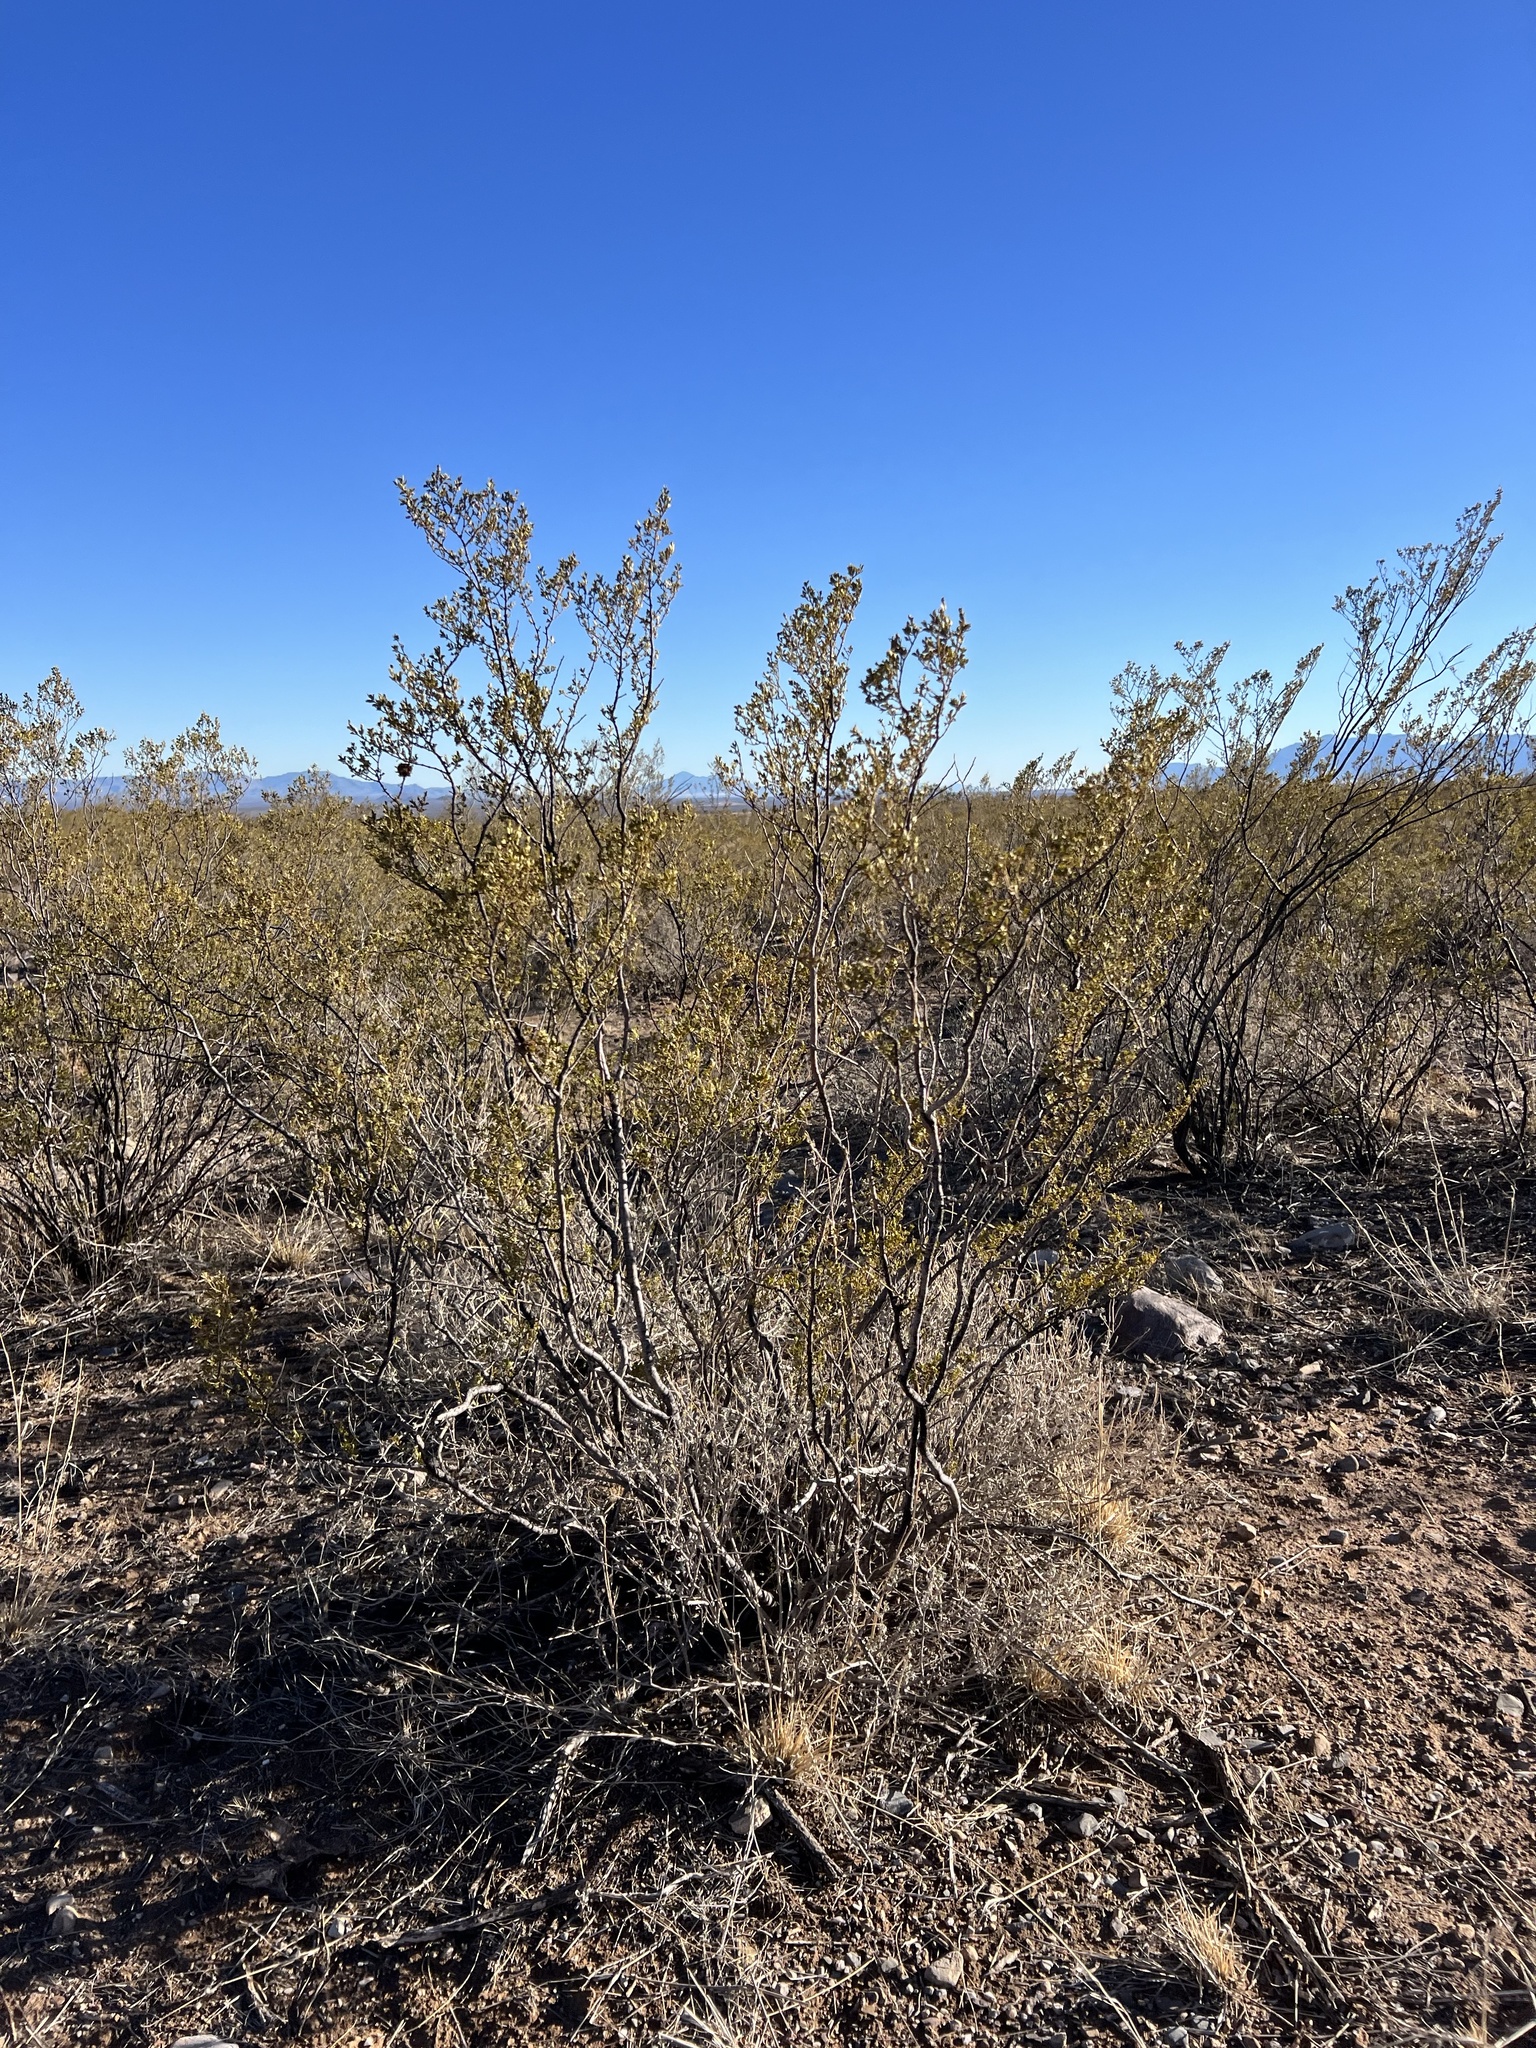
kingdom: Plantae
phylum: Tracheophyta
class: Magnoliopsida
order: Zygophyllales
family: Zygophyllaceae
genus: Larrea
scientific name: Larrea tridentata
